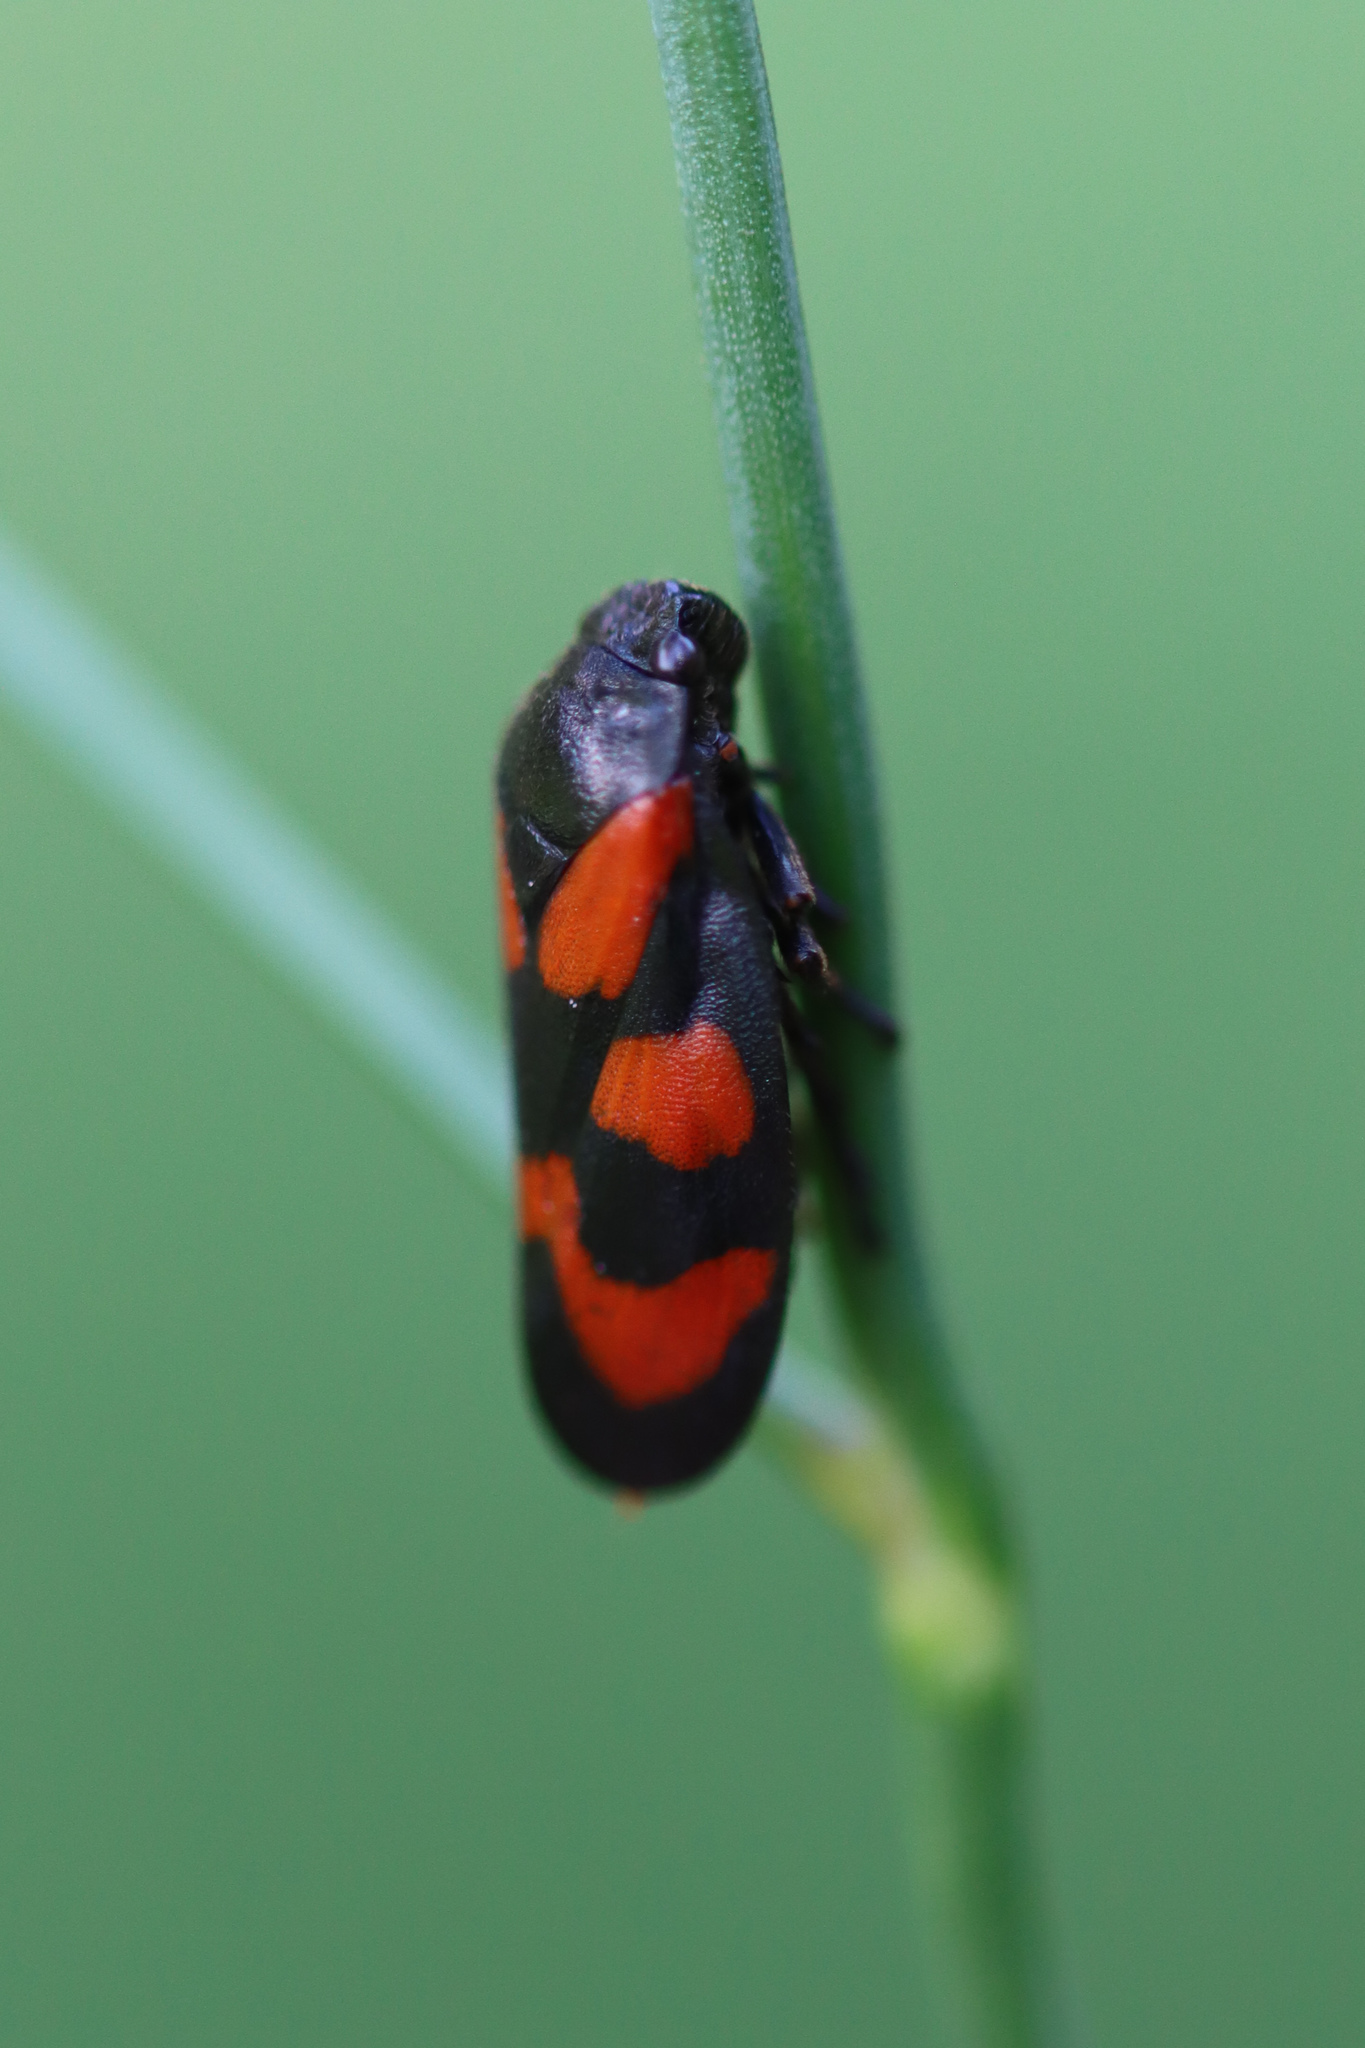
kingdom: Animalia
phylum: Arthropoda
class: Insecta
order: Hemiptera
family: Cercopidae
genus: Cercopis
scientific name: Cercopis vulnerata
